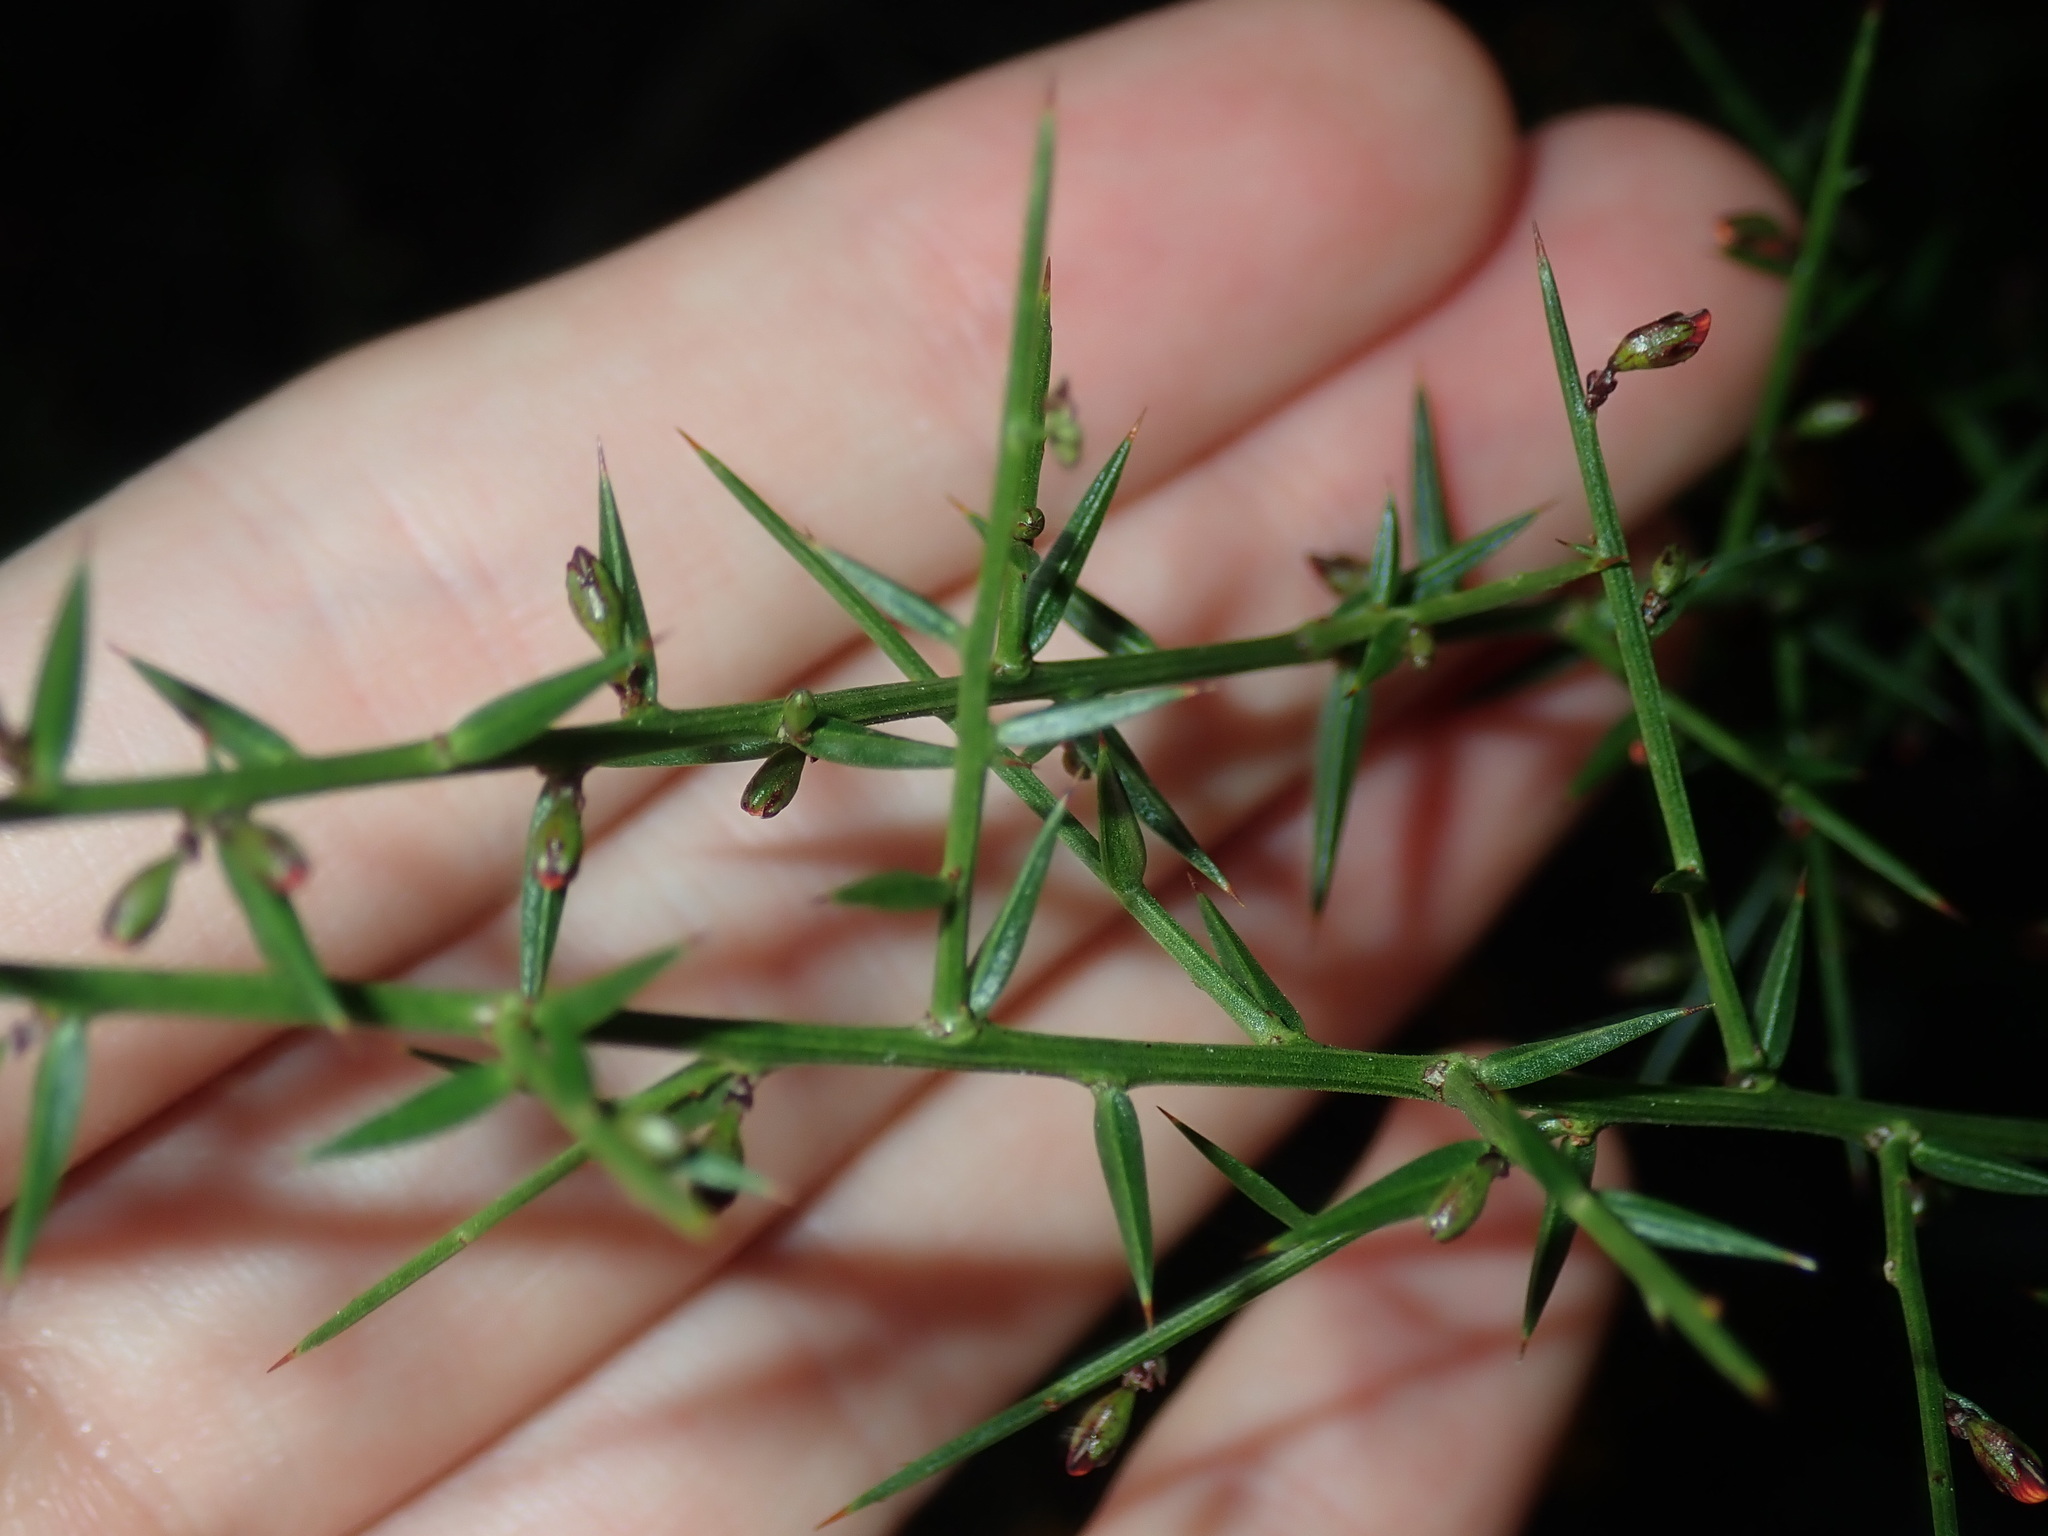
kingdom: Plantae
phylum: Tracheophyta
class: Magnoliopsida
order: Fabales
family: Fabaceae
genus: Daviesia
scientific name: Daviesia ulicifolia
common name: Gorse bitter-pea
